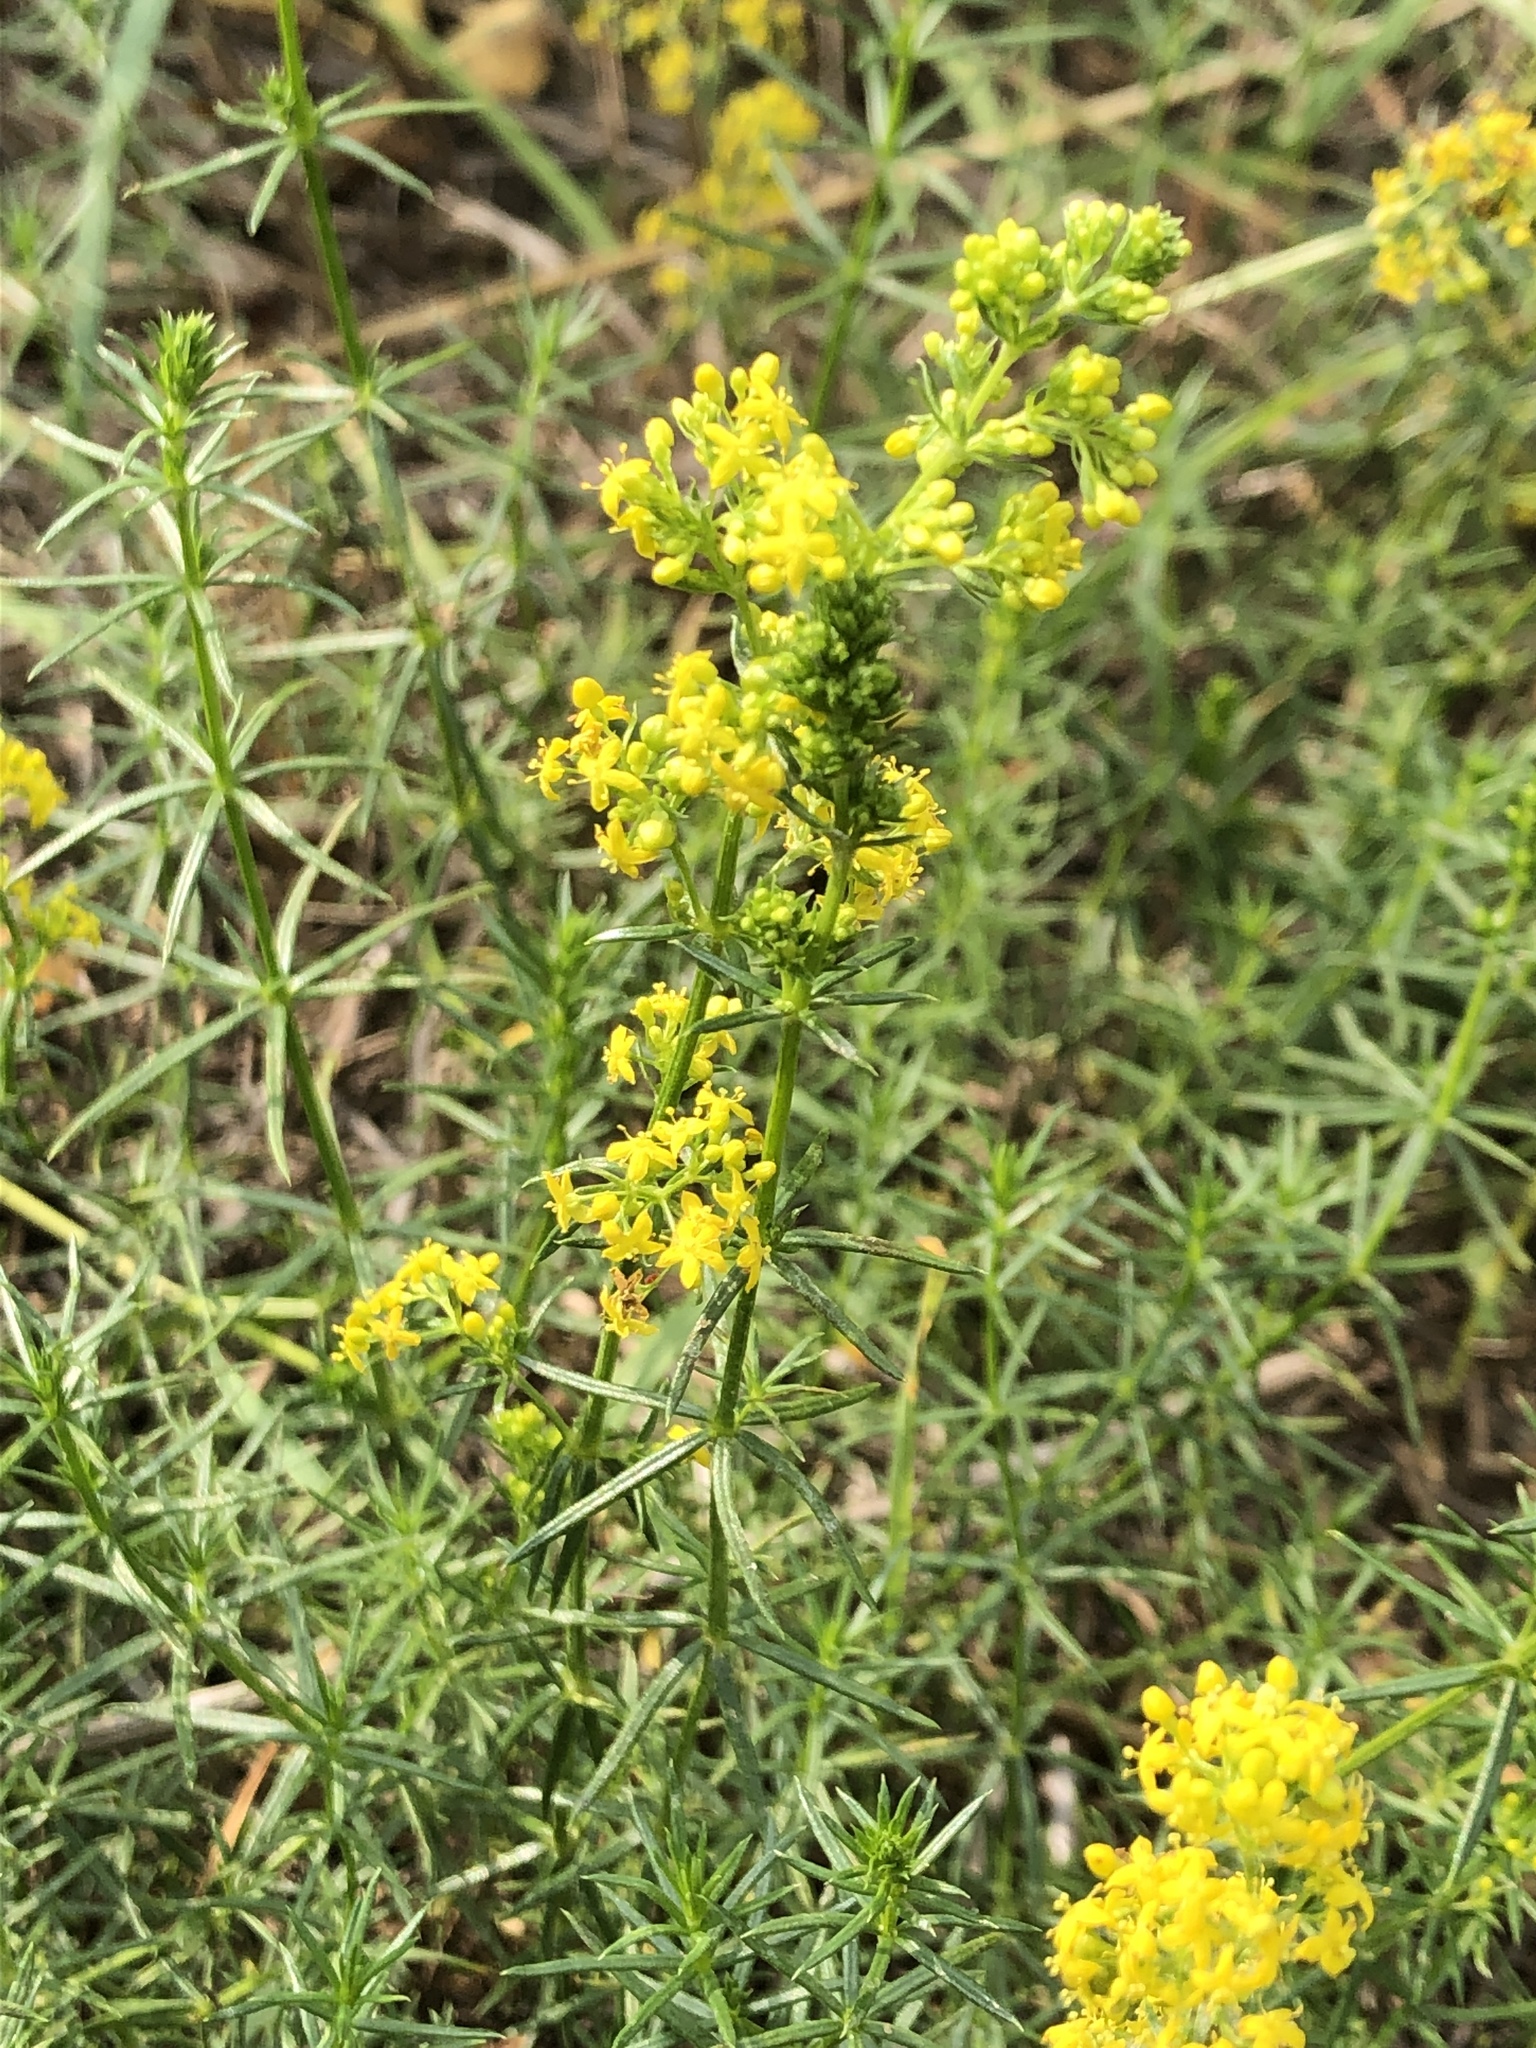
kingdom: Plantae
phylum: Tracheophyta
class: Magnoliopsida
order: Gentianales
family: Rubiaceae
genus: Galium
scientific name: Galium verum
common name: Lady's bedstraw
